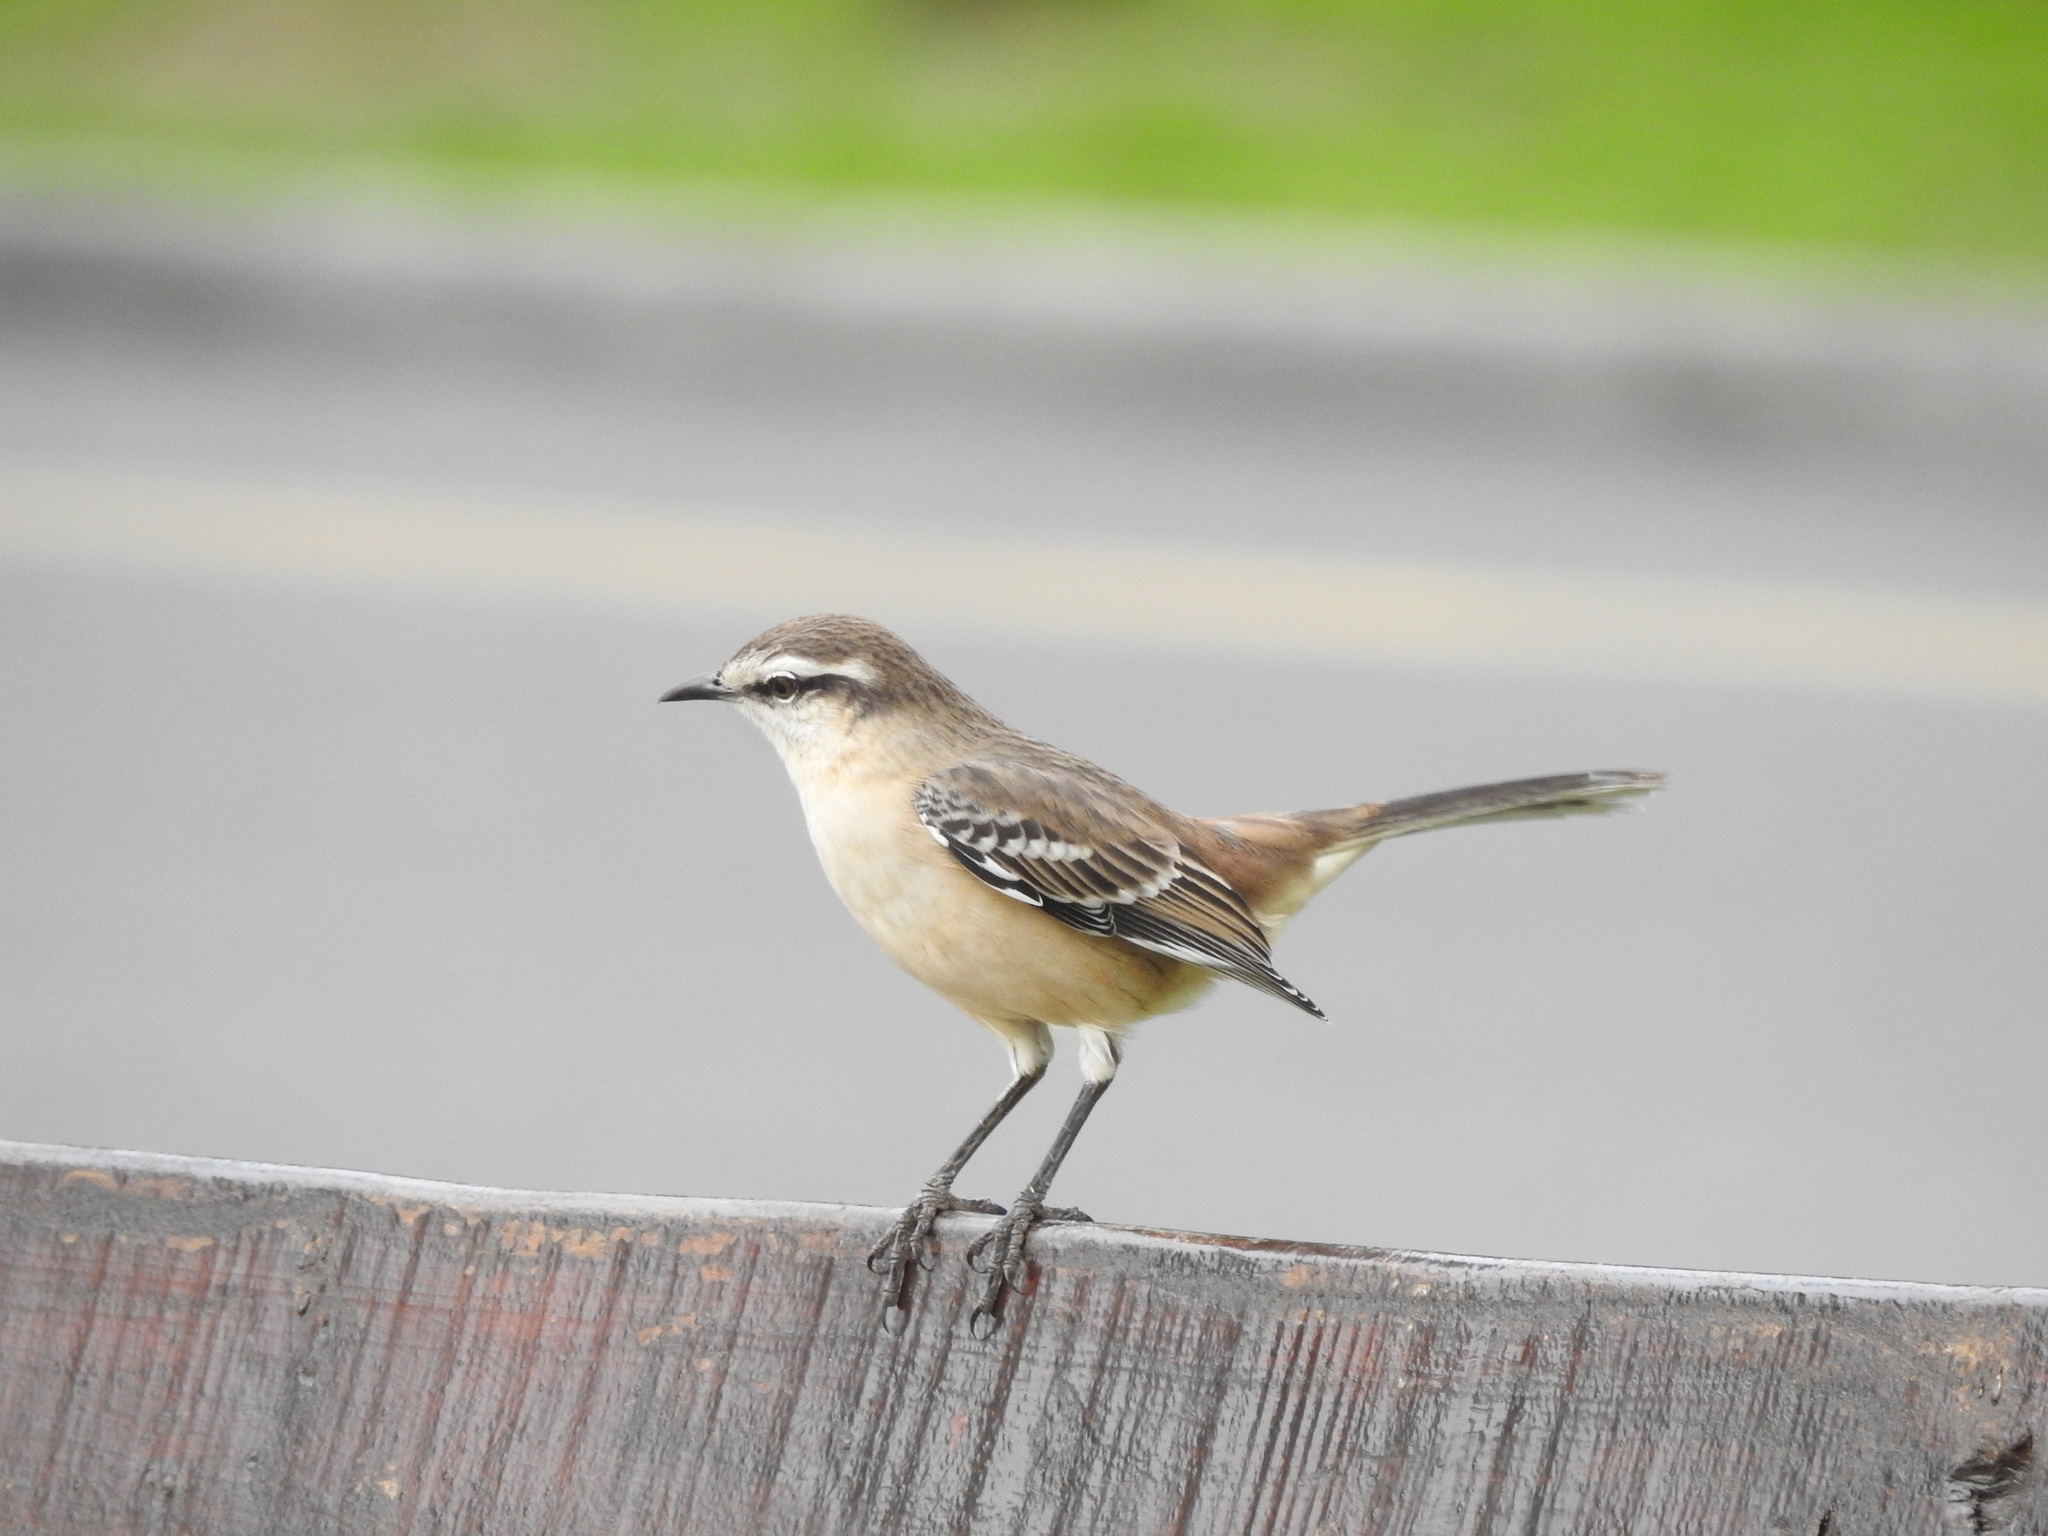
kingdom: Animalia
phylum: Chordata
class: Aves
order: Passeriformes
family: Mimidae
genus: Mimus
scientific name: Mimus saturninus
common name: Chalk-browed mockingbird
